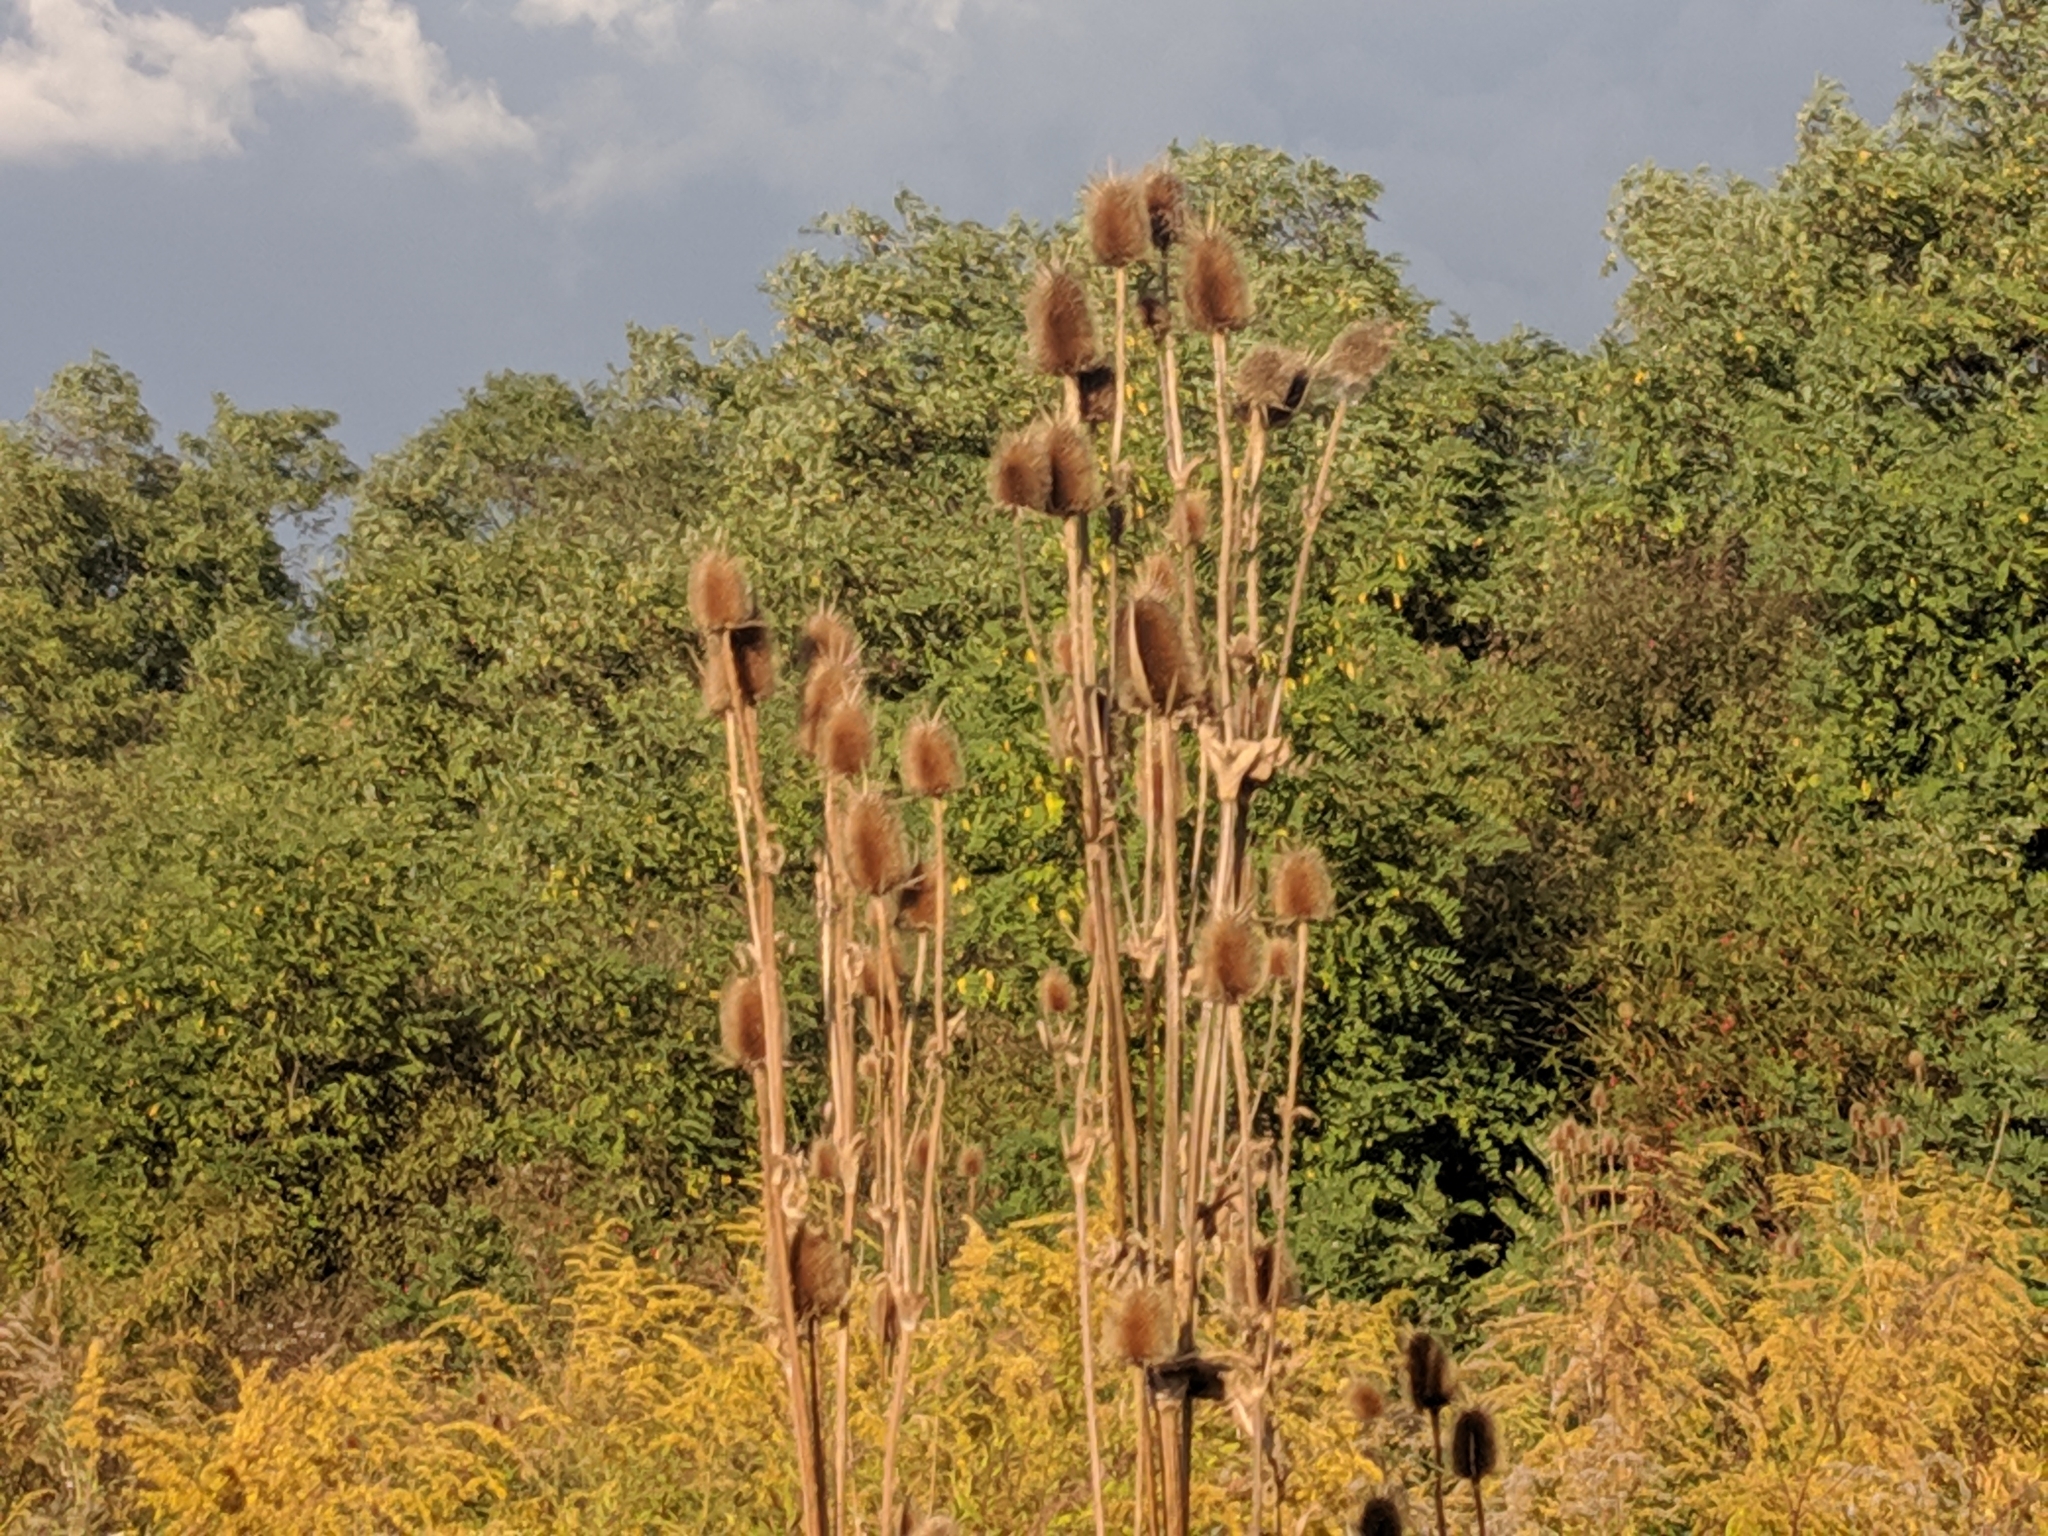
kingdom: Plantae
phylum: Tracheophyta
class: Magnoliopsida
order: Dipsacales
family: Caprifoliaceae
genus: Dipsacus
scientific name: Dipsacus laciniatus
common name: Cut-leaved teasel
